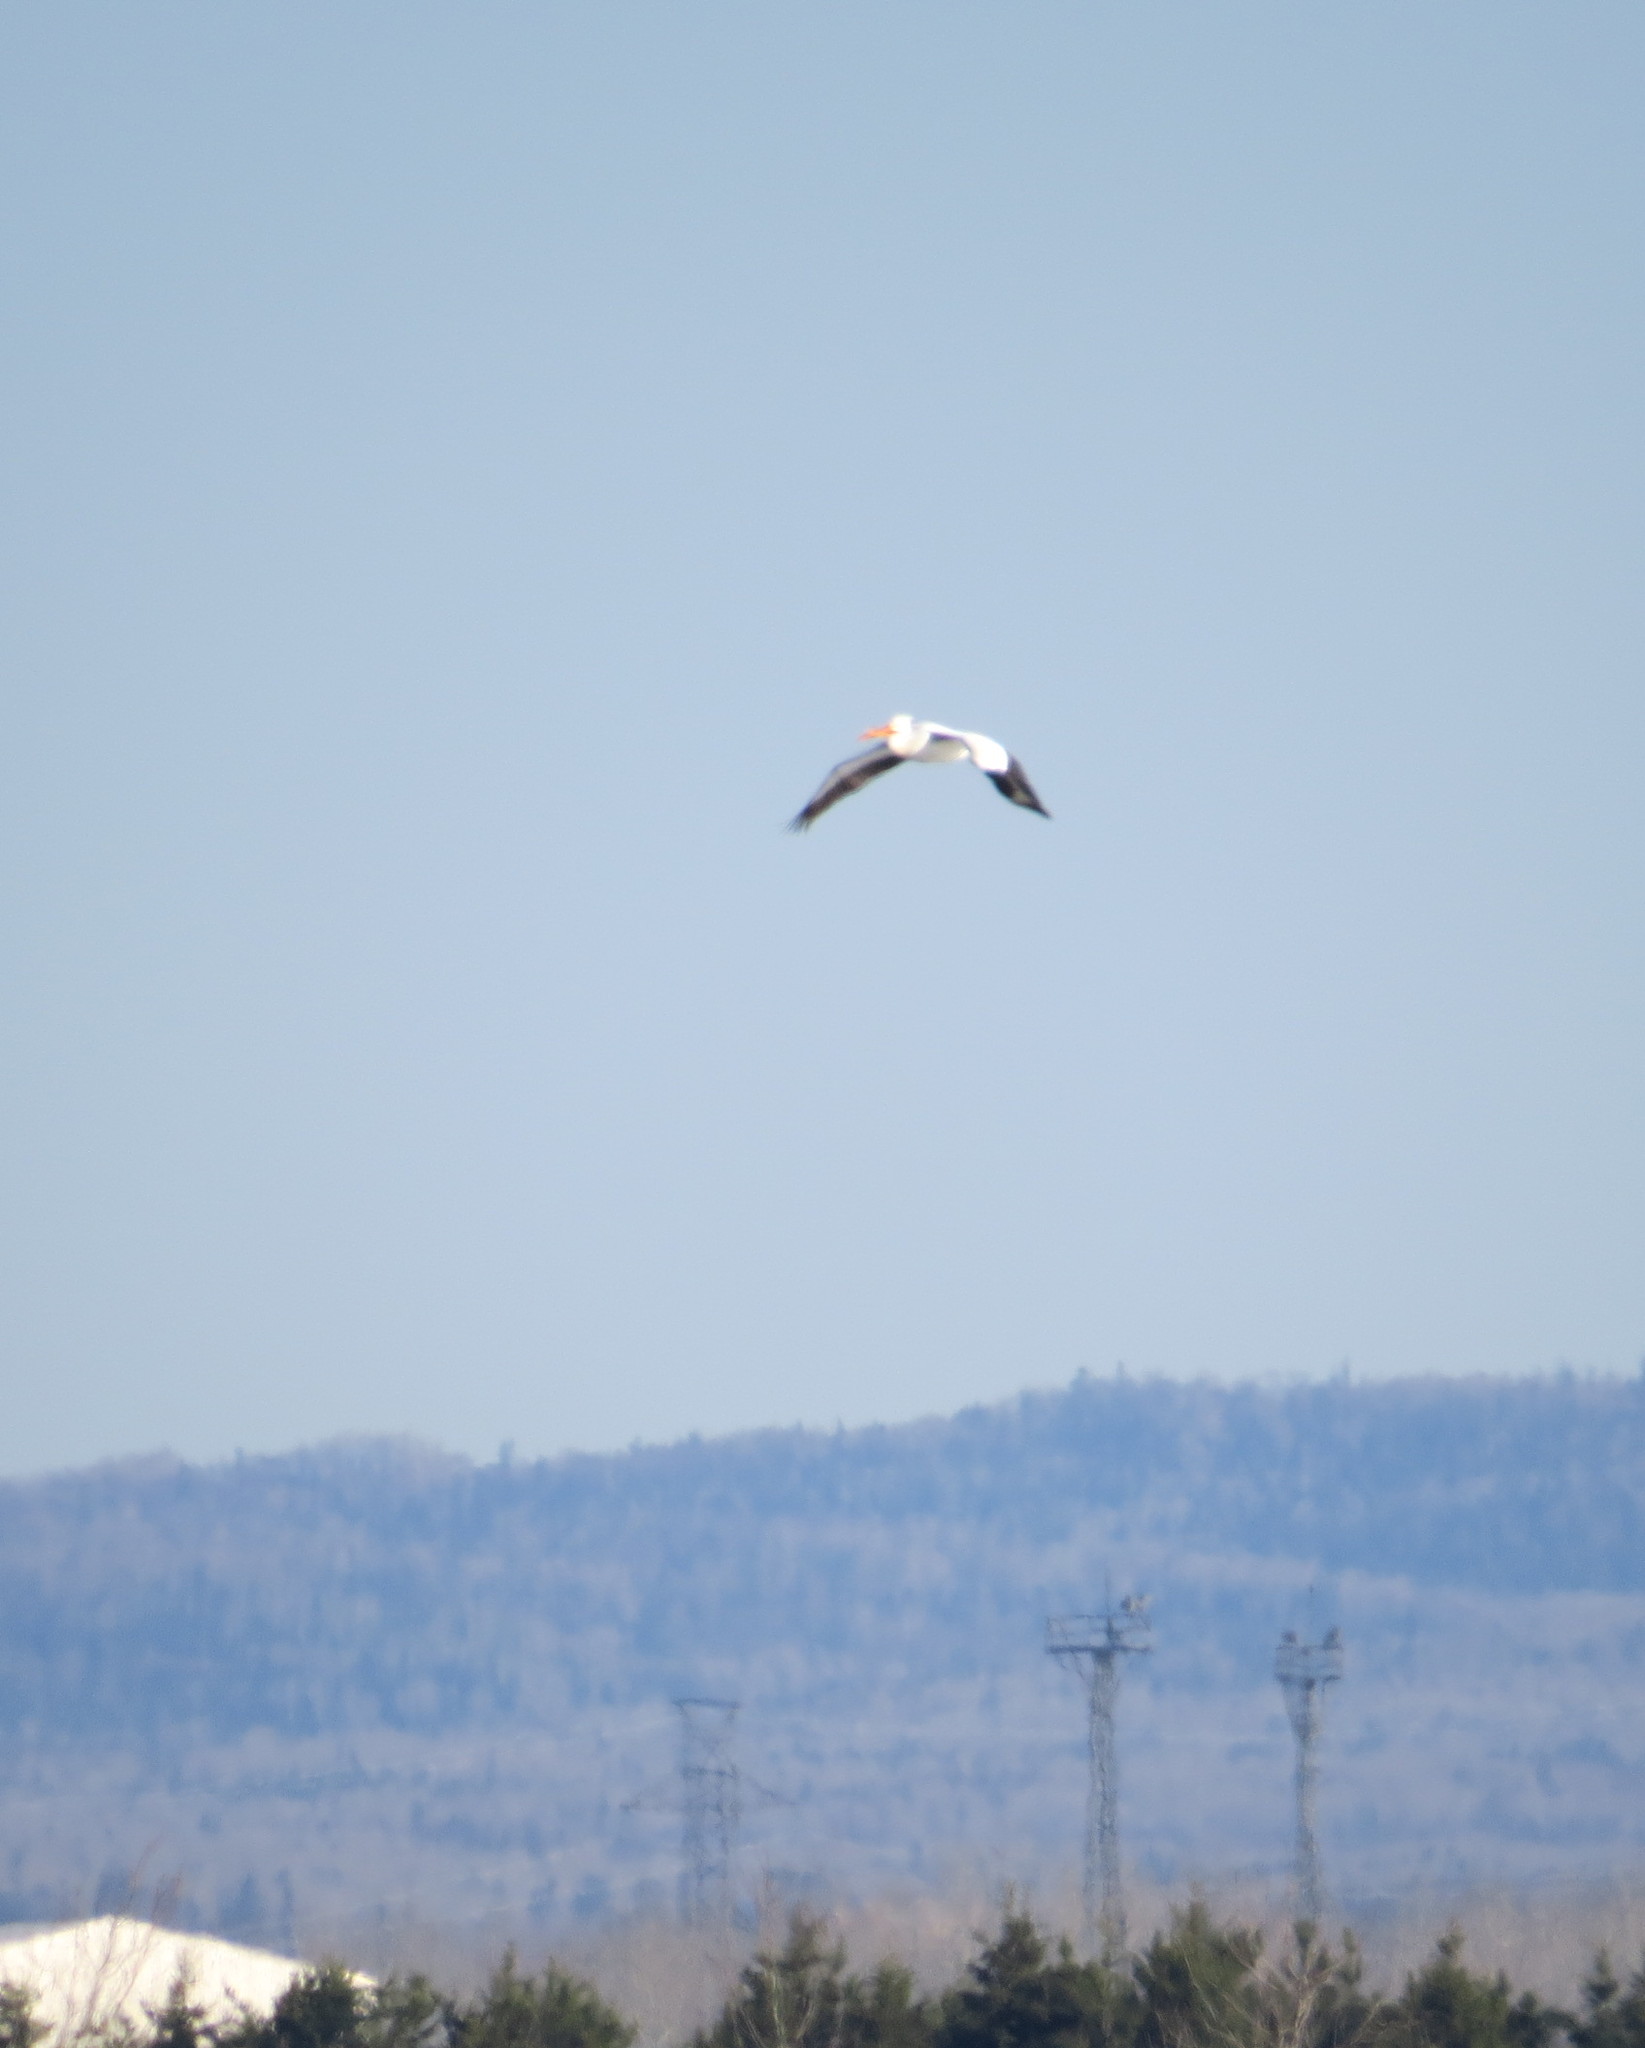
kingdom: Animalia
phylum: Chordata
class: Aves
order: Pelecaniformes
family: Pelecanidae
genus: Pelecanus
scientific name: Pelecanus erythrorhynchos
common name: American white pelican
